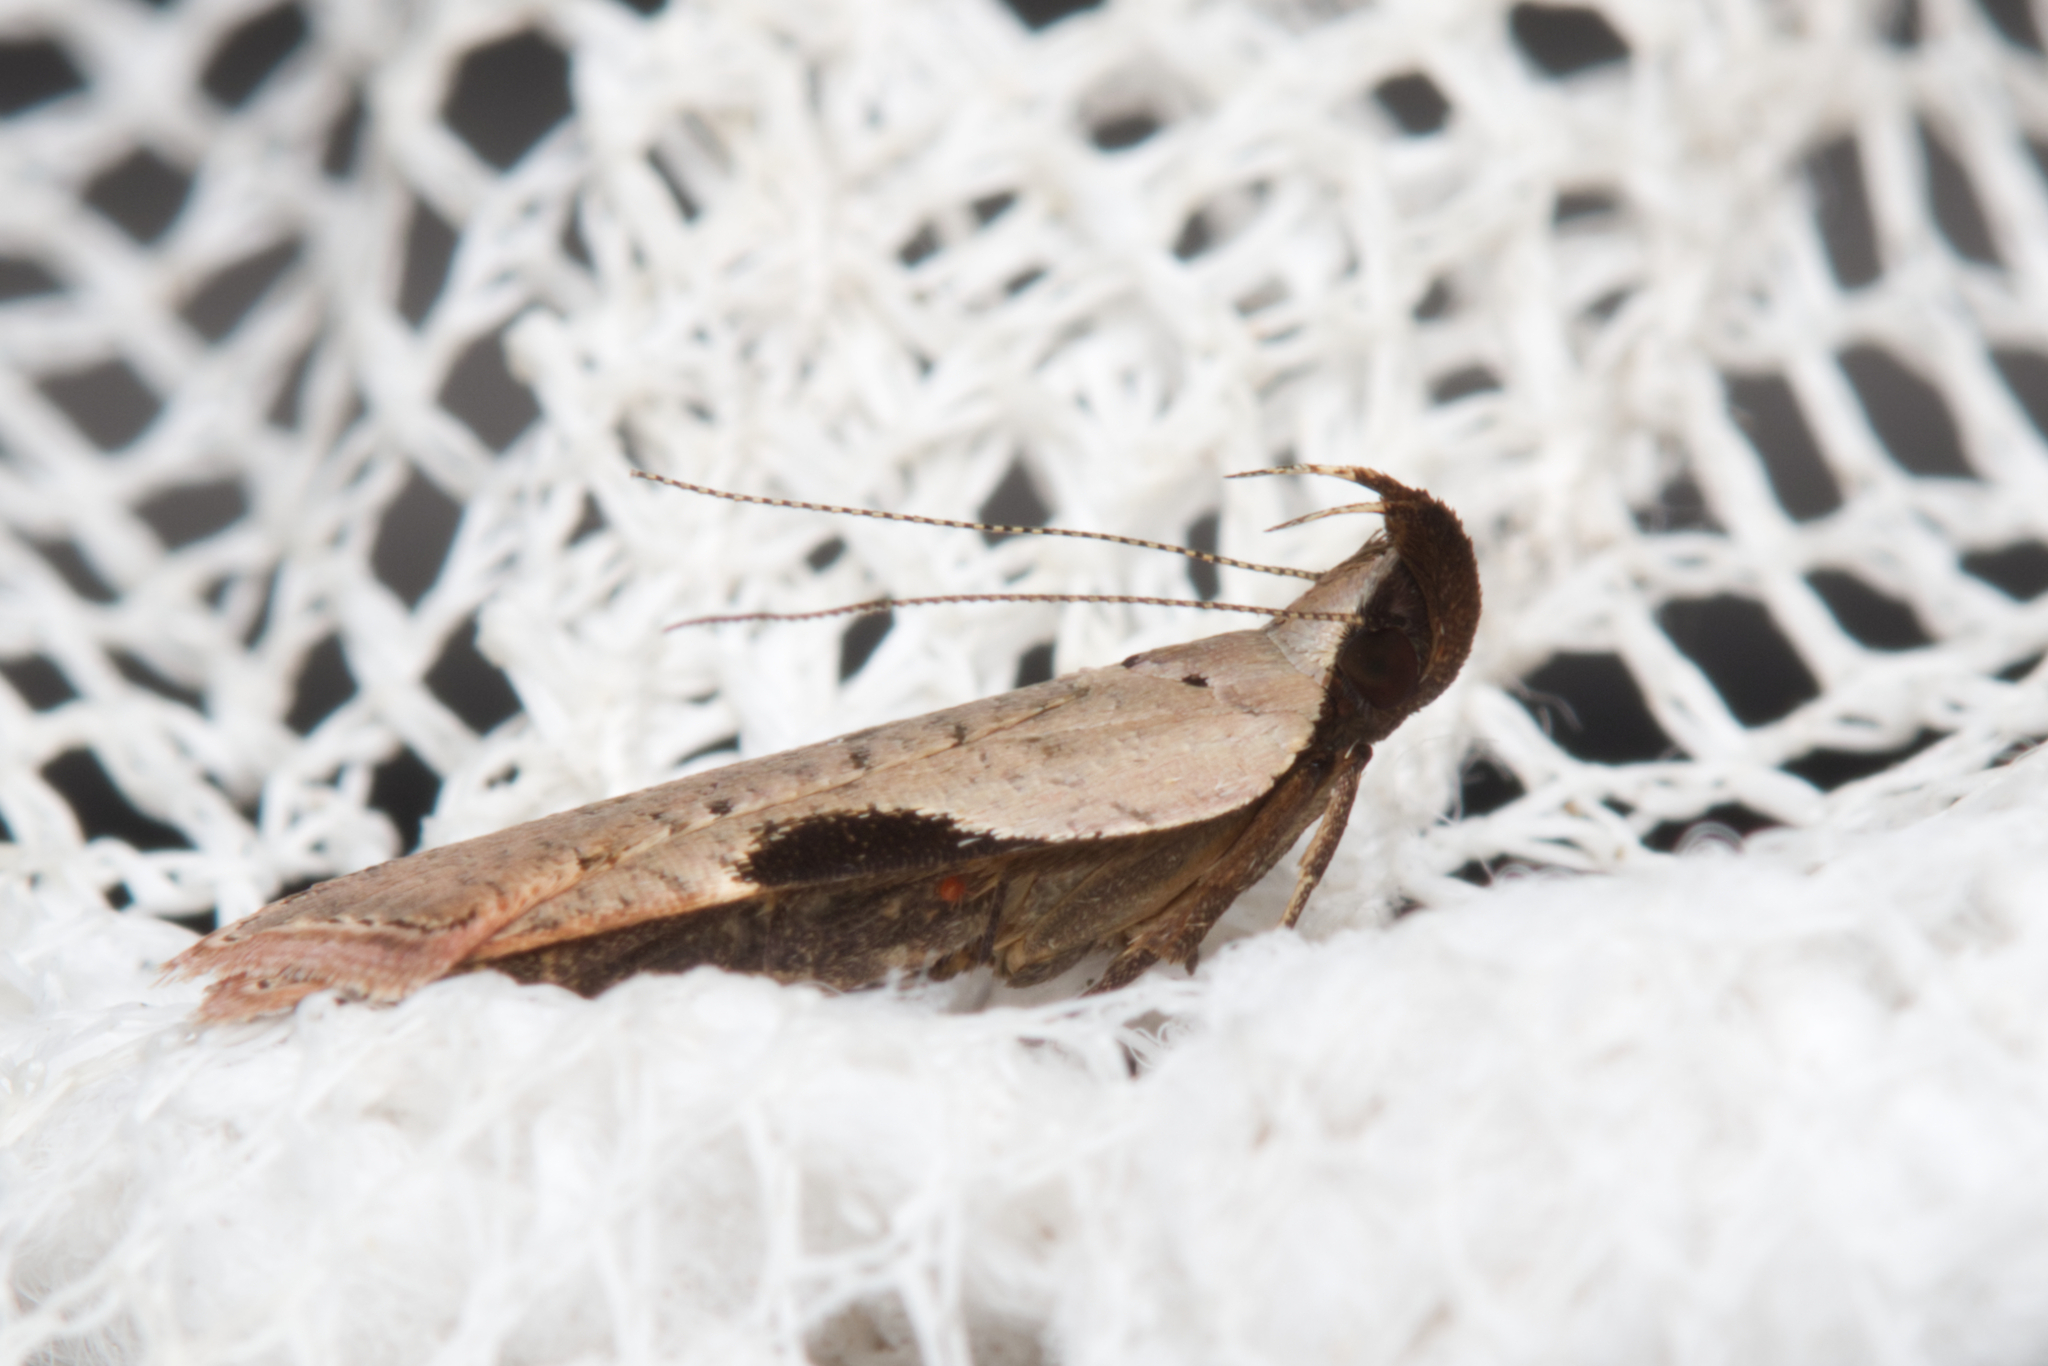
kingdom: Animalia
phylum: Arthropoda
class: Insecta
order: Lepidoptera
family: Gelechiidae
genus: Dichomeris
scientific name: Dichomeris ochreoviridella
